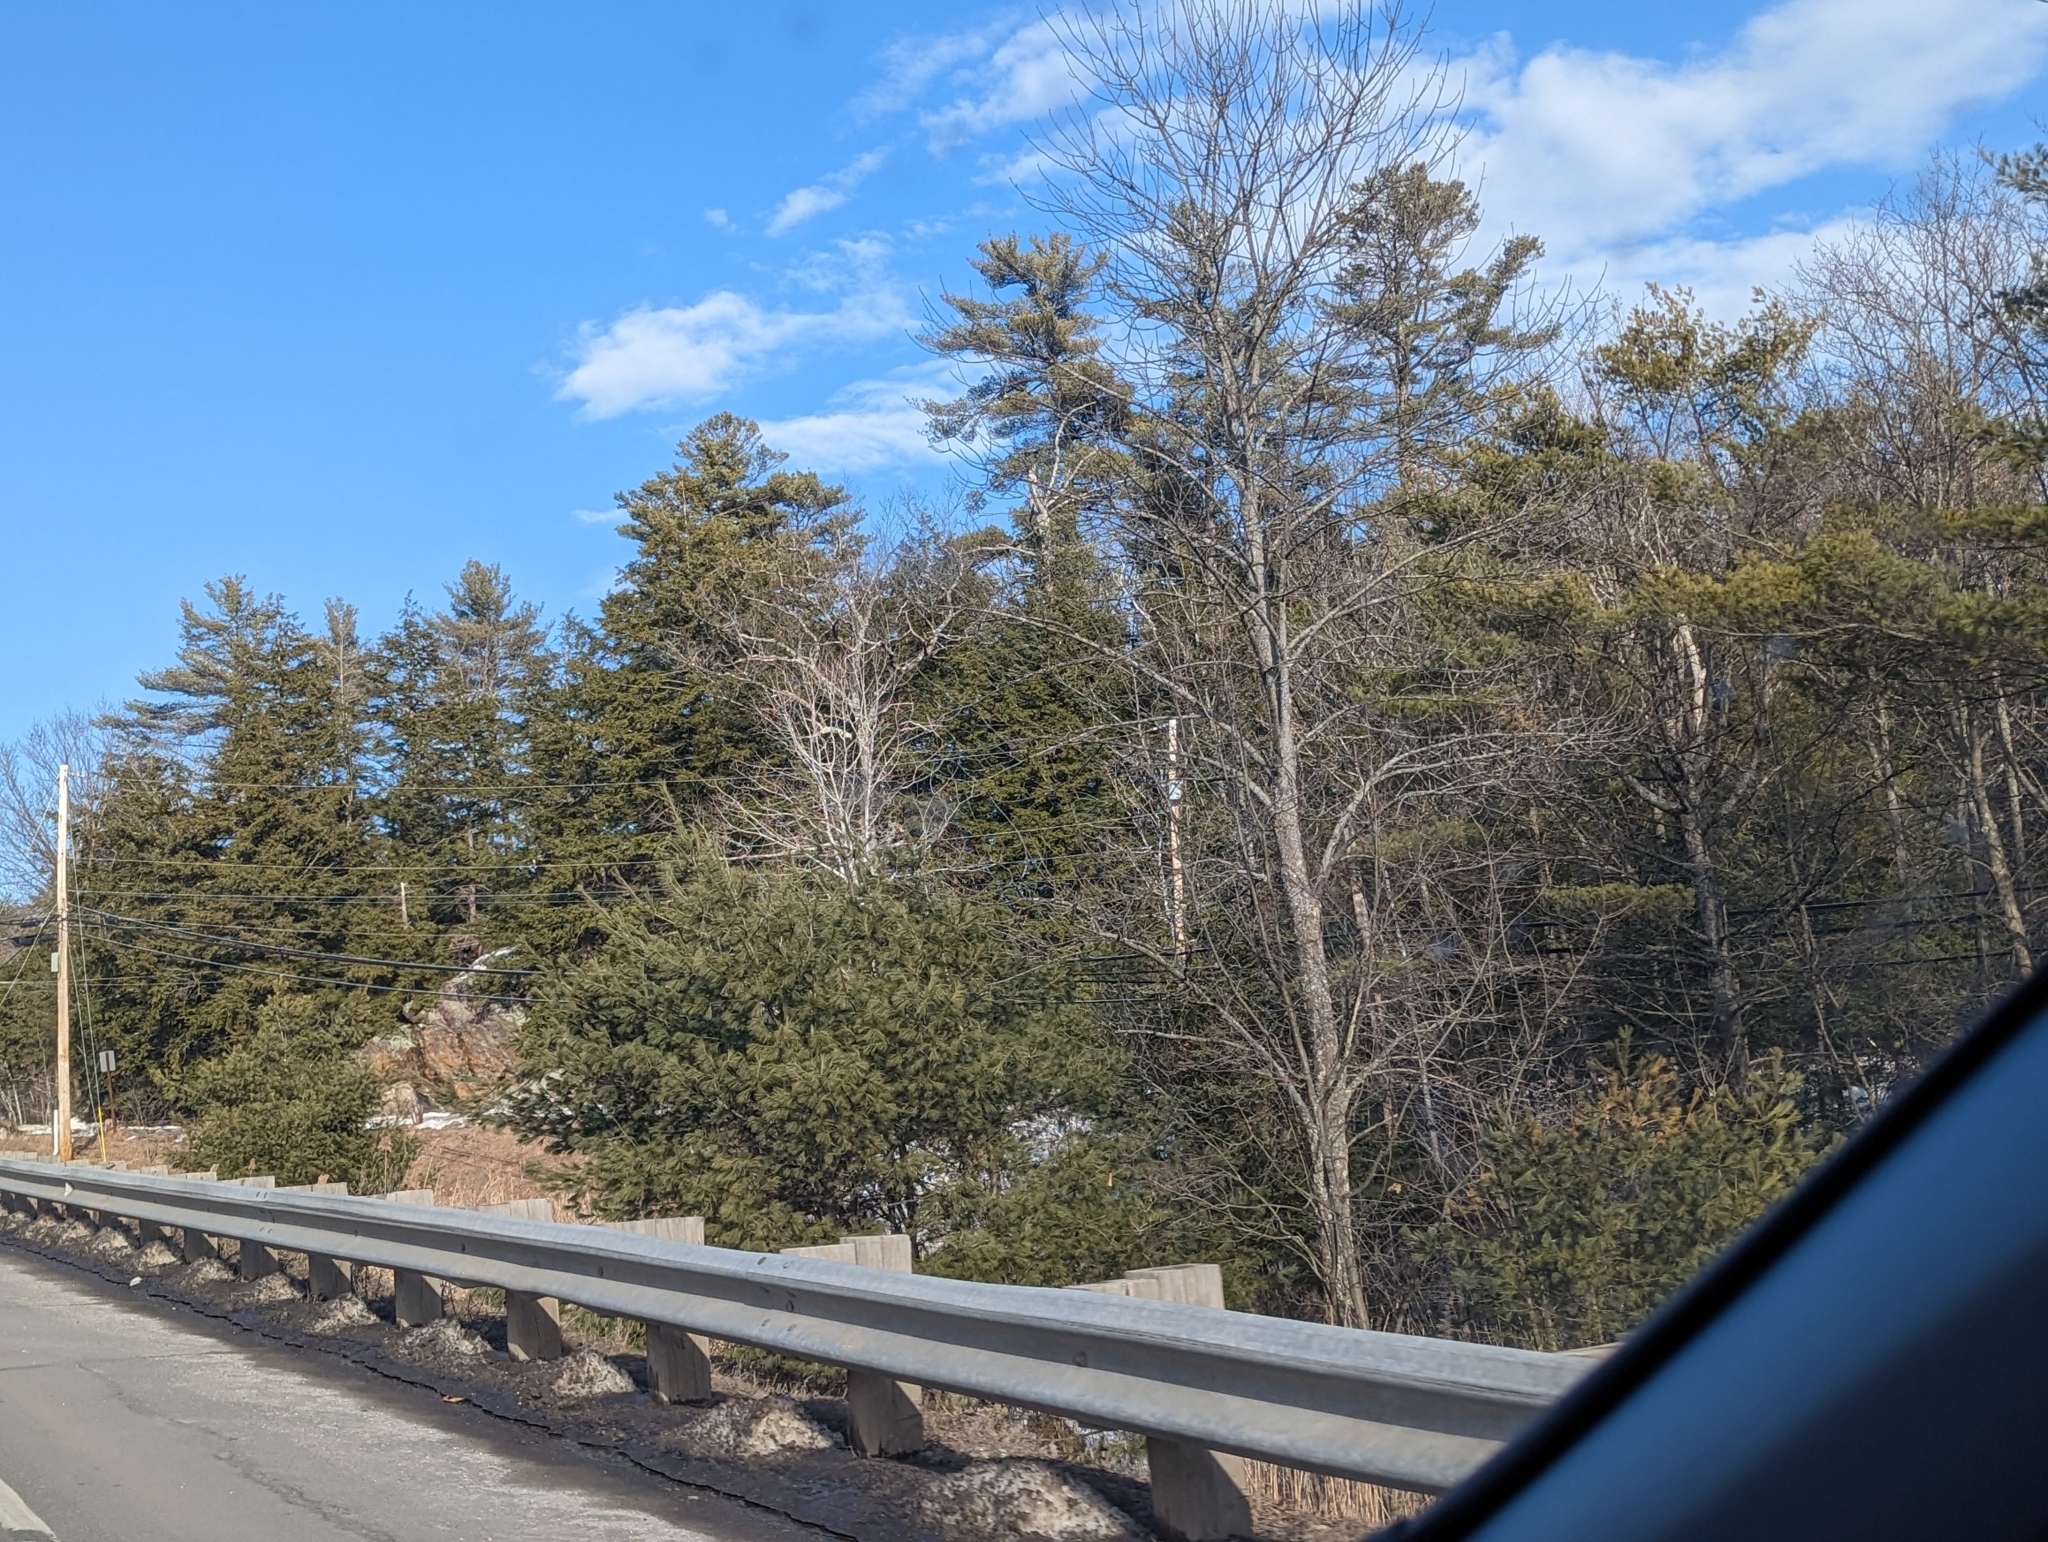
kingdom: Plantae
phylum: Tracheophyta
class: Pinopsida
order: Pinales
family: Pinaceae
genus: Pinus
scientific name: Pinus strobus
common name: Weymouth pine
